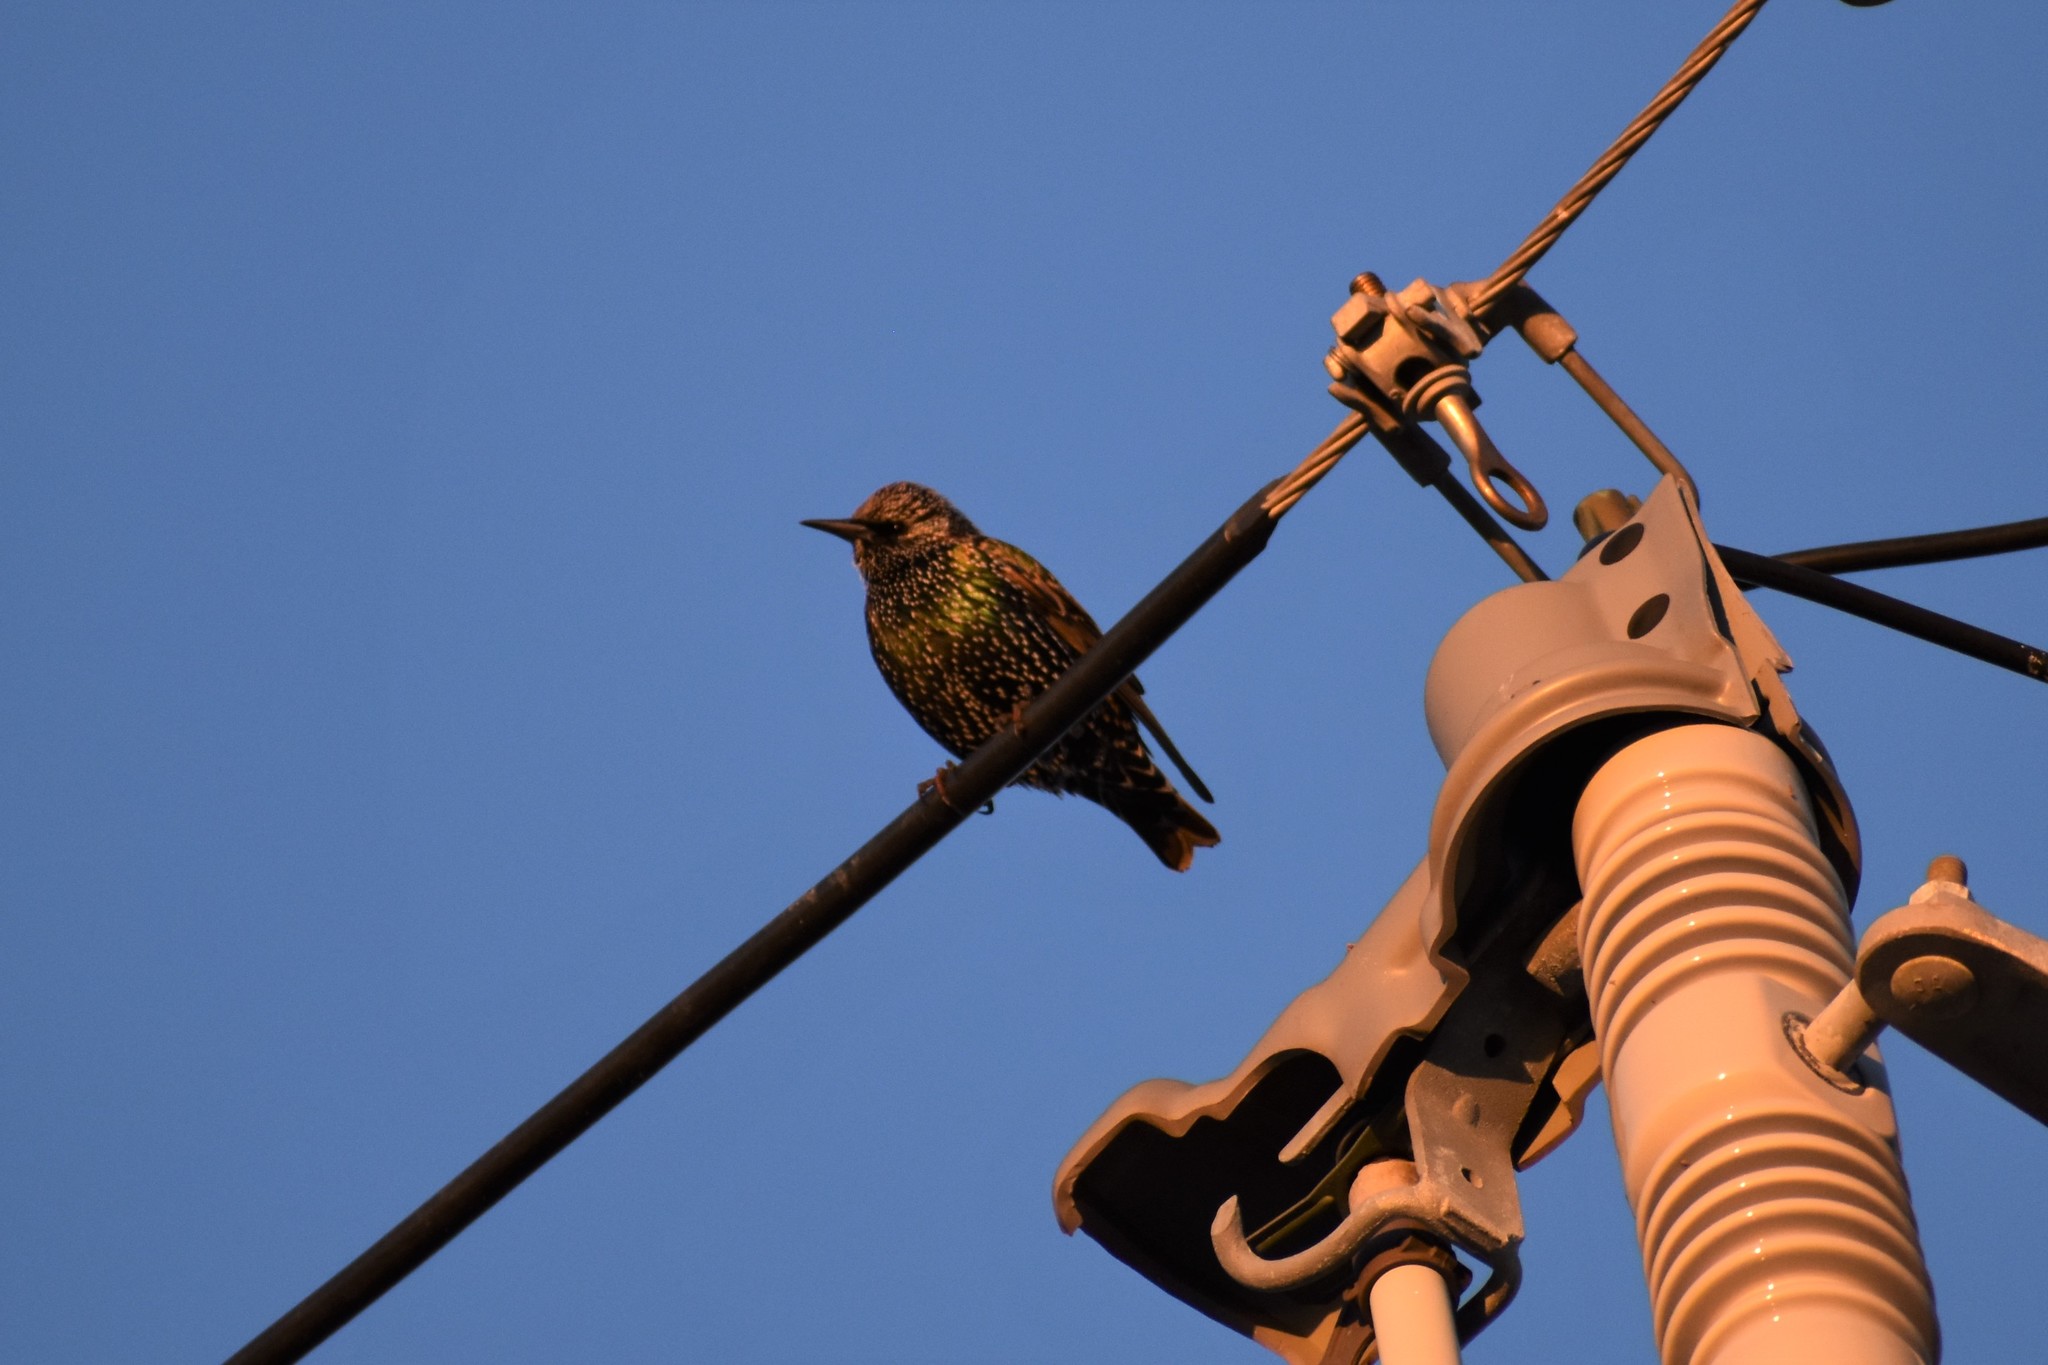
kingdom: Animalia
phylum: Chordata
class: Aves
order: Passeriformes
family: Sturnidae
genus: Sturnus
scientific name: Sturnus vulgaris
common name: Common starling
